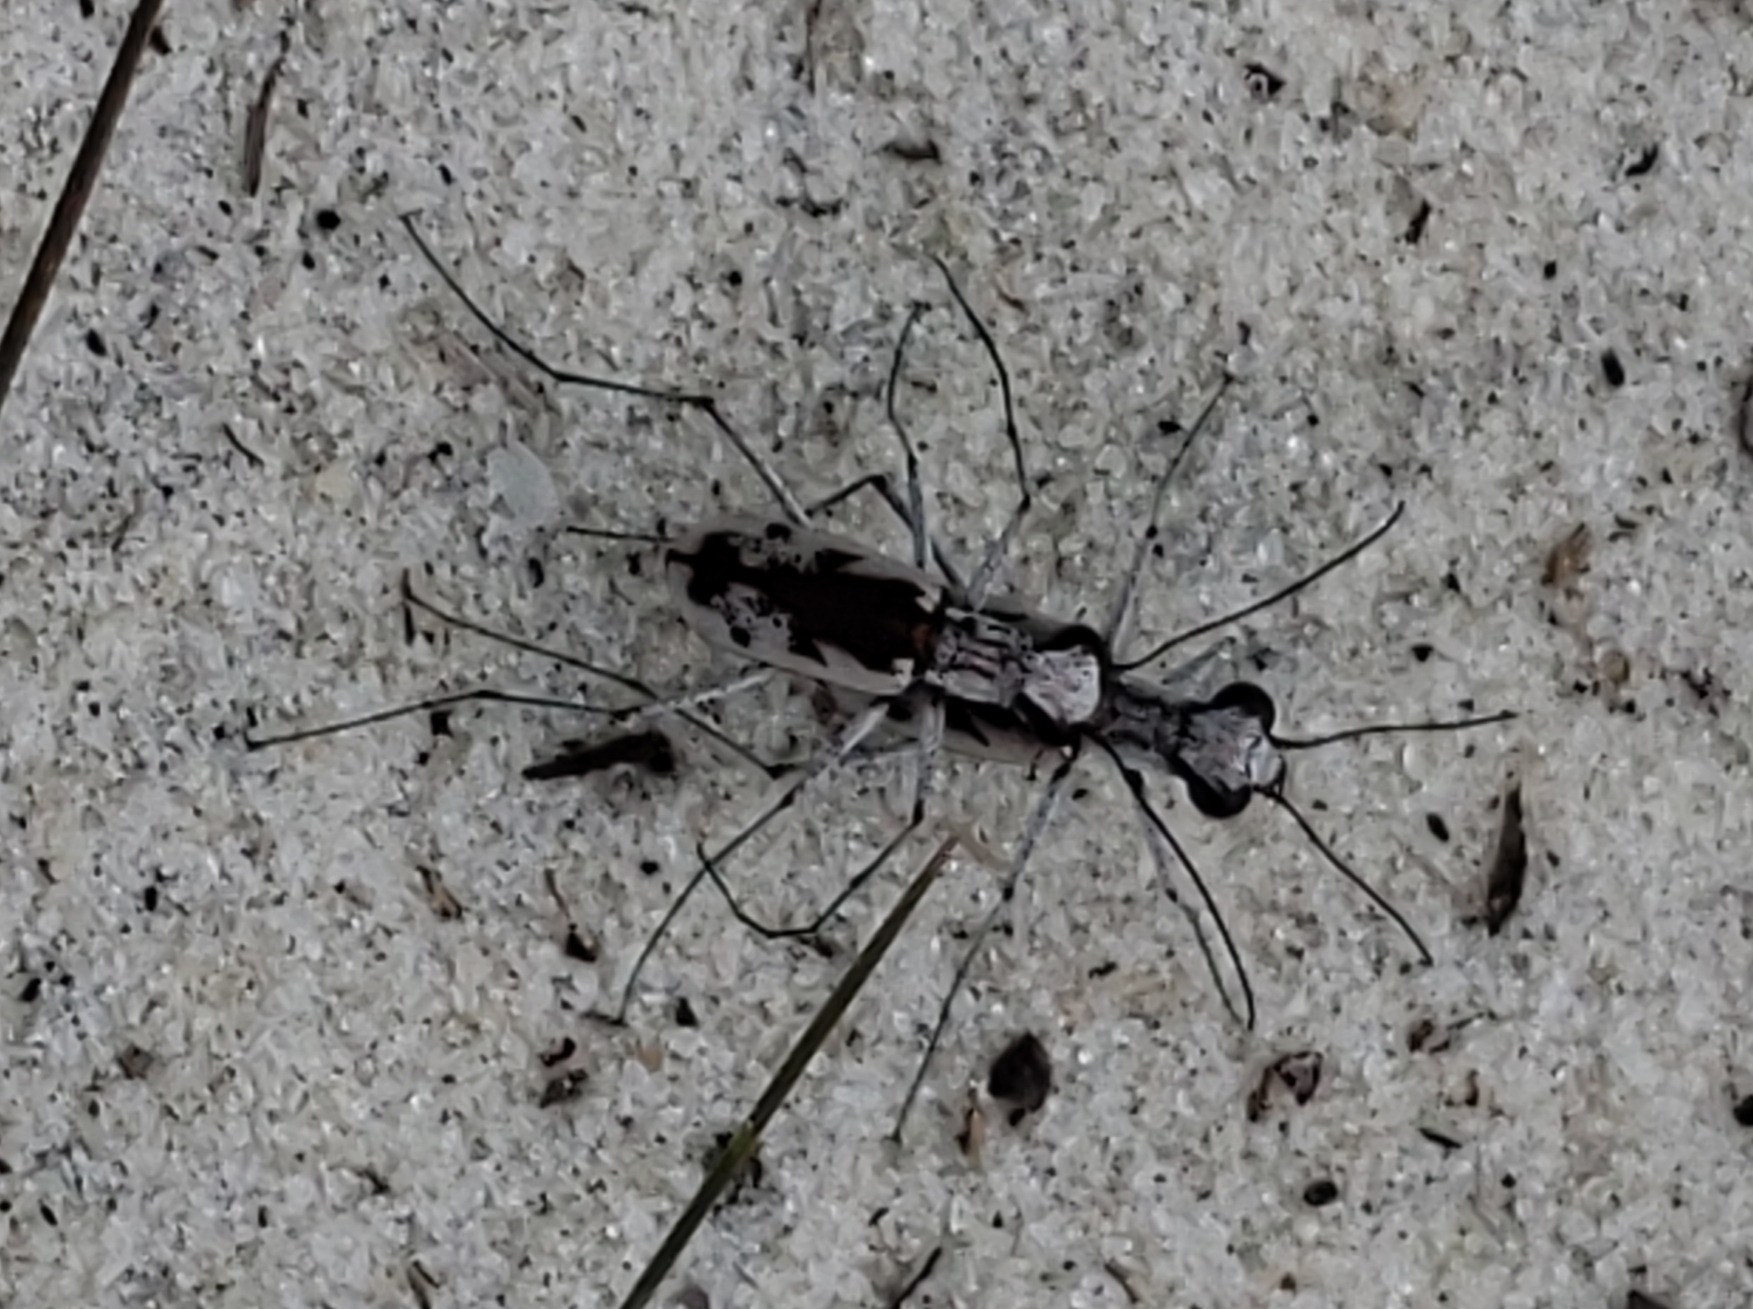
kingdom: Animalia
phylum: Arthropoda
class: Insecta
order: Coleoptera
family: Carabidae
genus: Ellipsoptera
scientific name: Ellipsoptera hirtilabris
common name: Moustached tiger beetle
